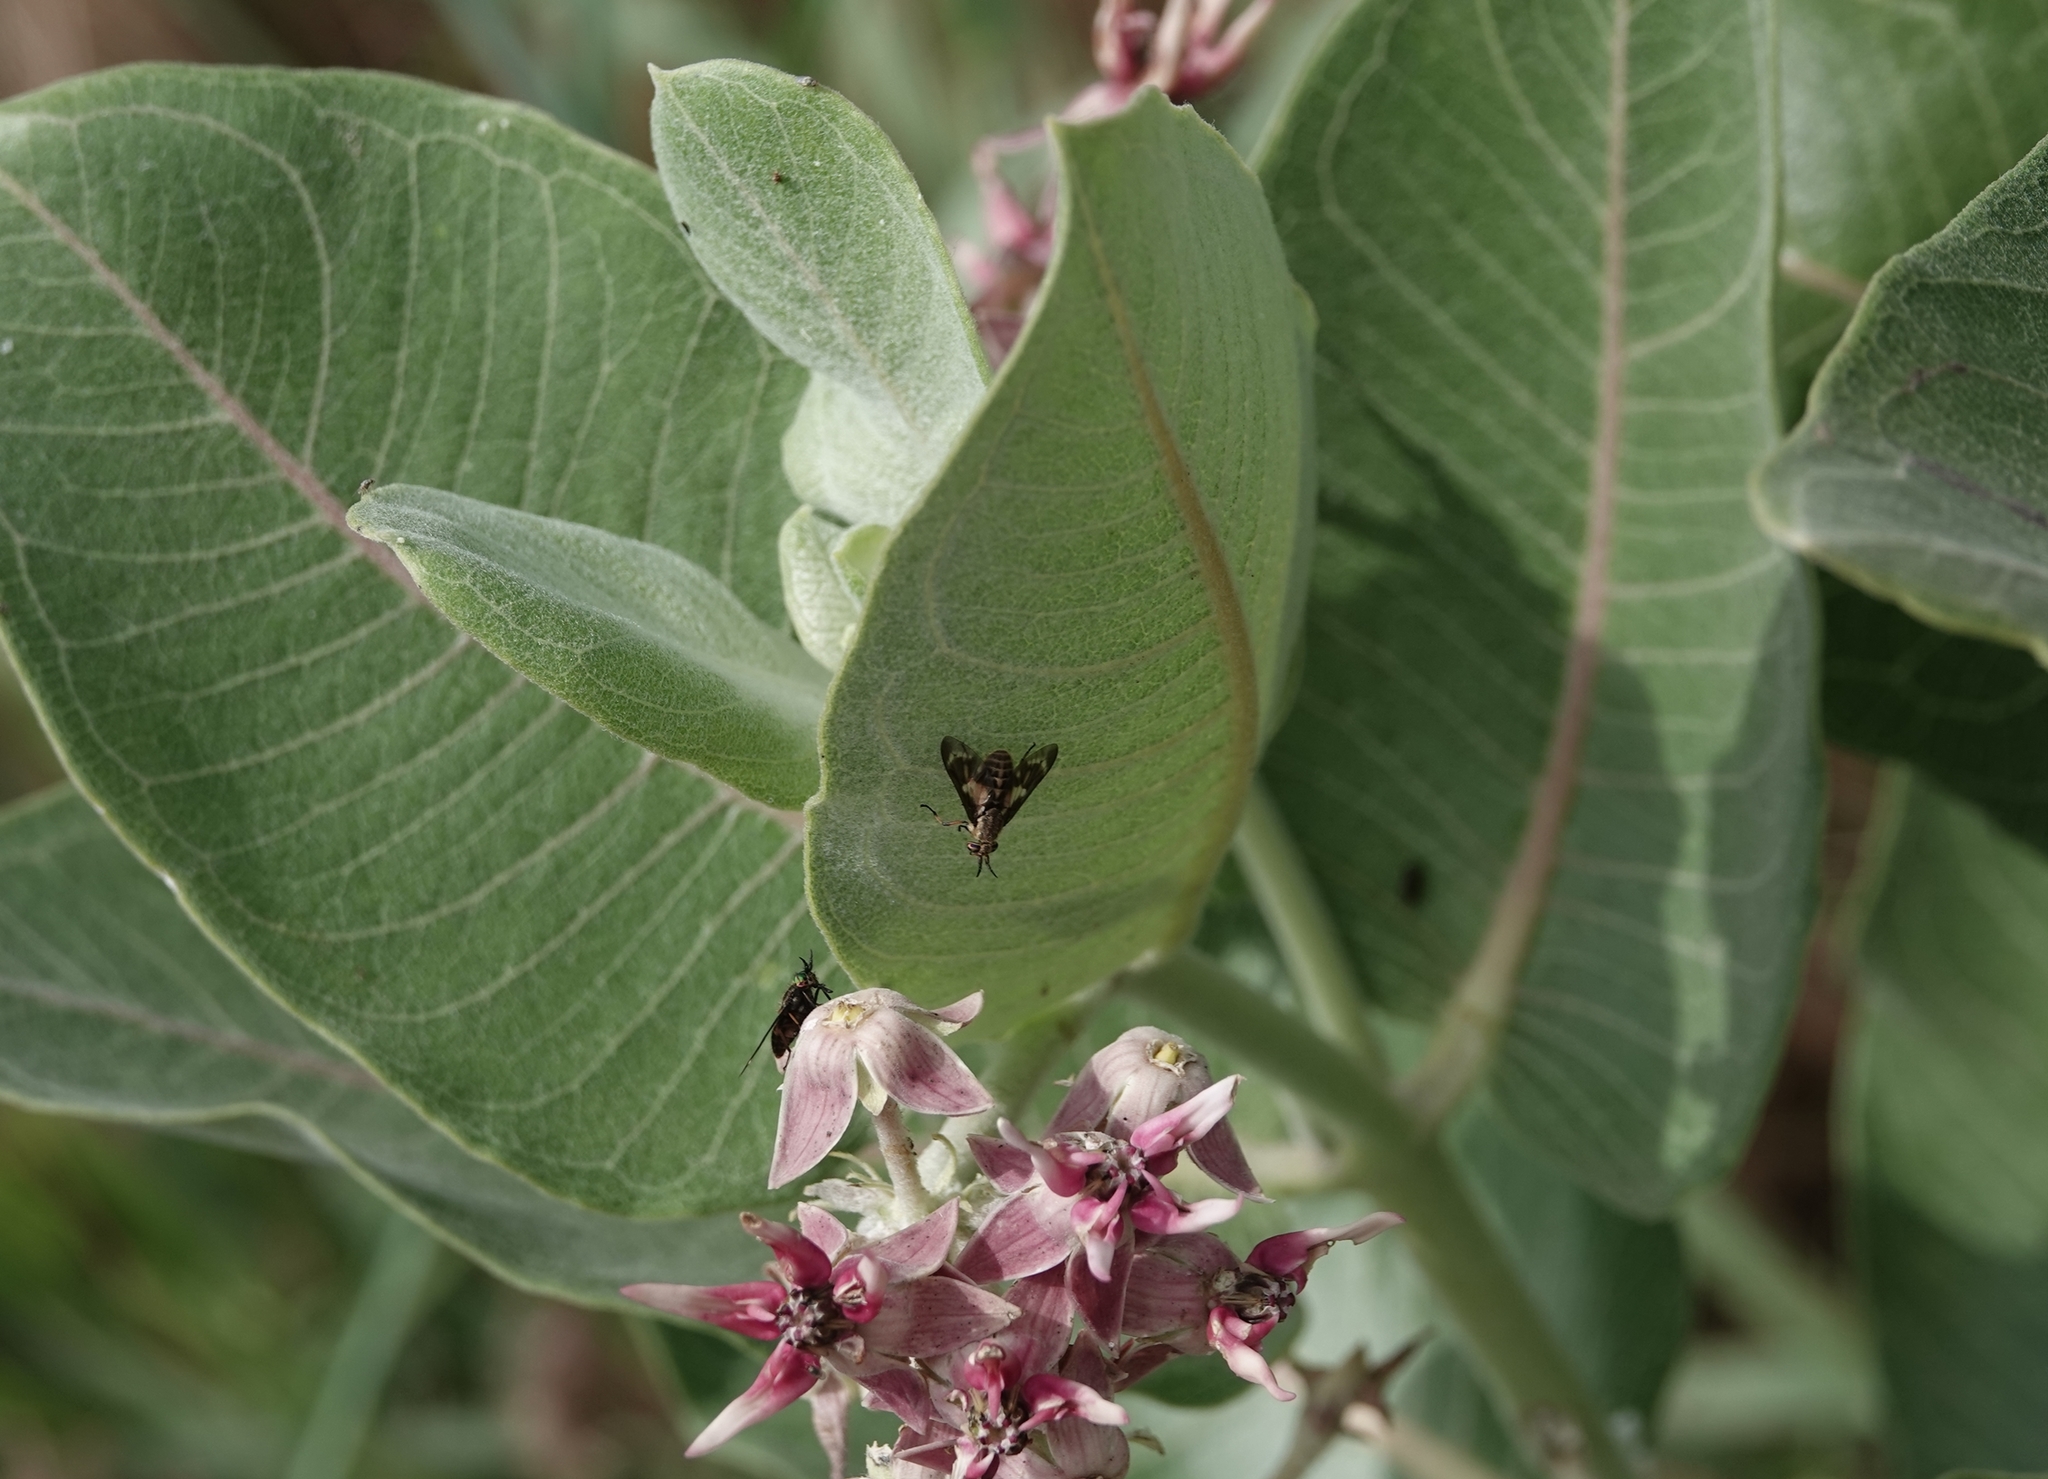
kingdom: Animalia
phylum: Arthropoda
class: Insecta
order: Diptera
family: Tabanidae
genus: Chrysops
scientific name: Chrysops fulvaster
